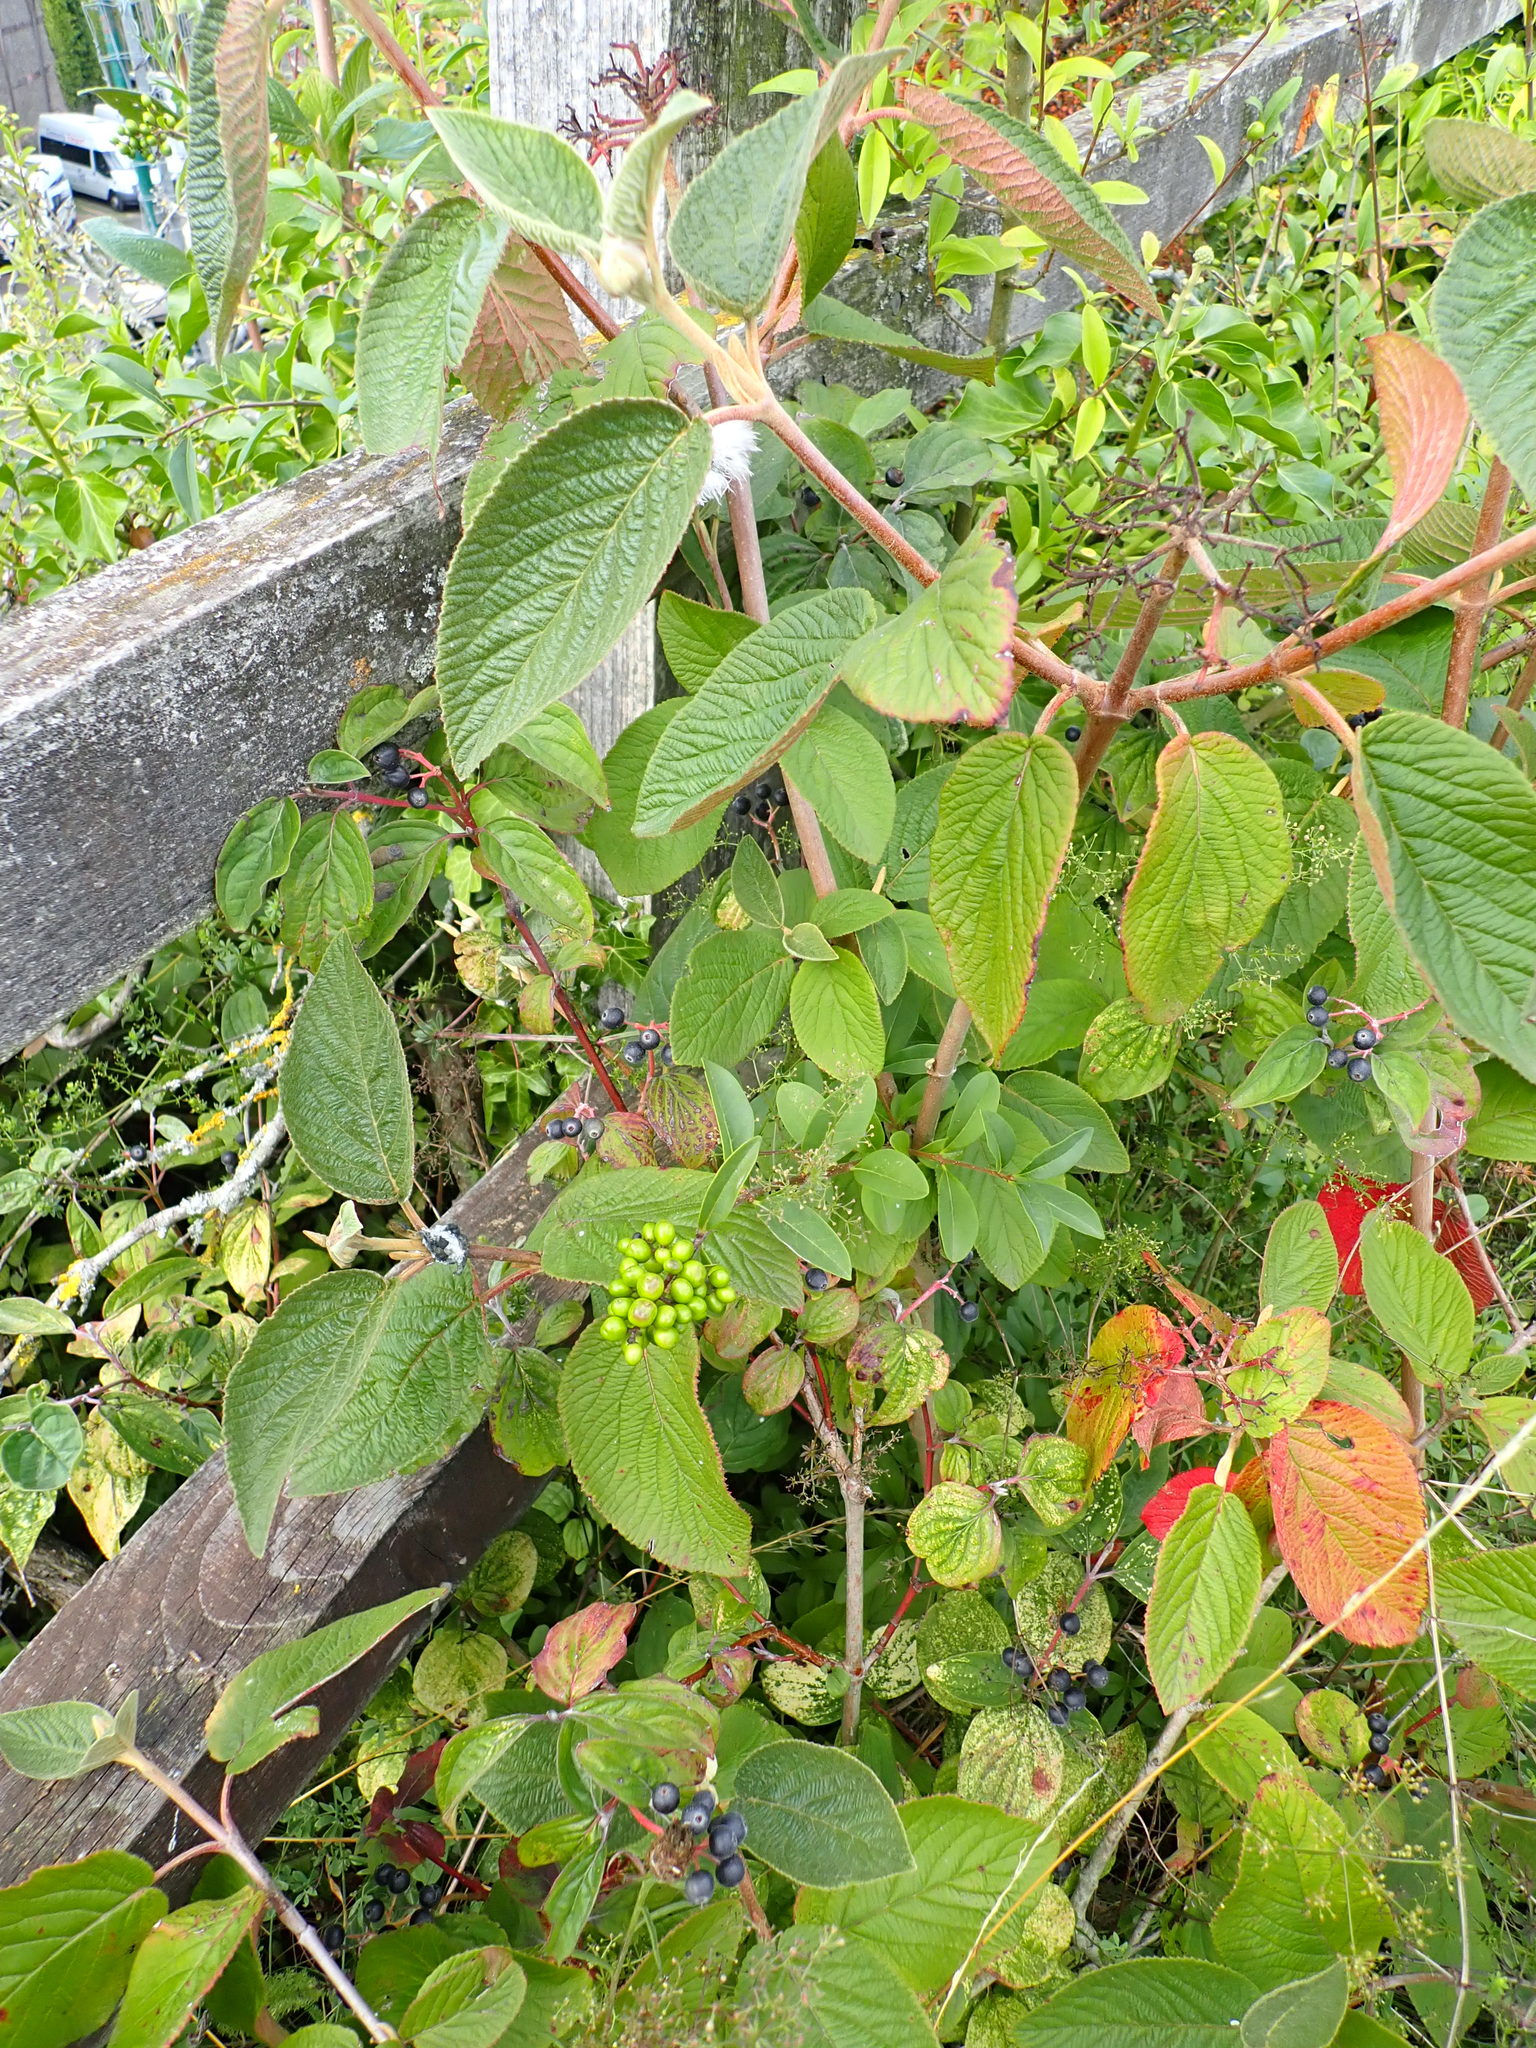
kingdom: Plantae
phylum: Tracheophyta
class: Magnoliopsida
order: Dipsacales
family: Viburnaceae
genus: Viburnum
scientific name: Viburnum lantana
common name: Wayfaring tree
